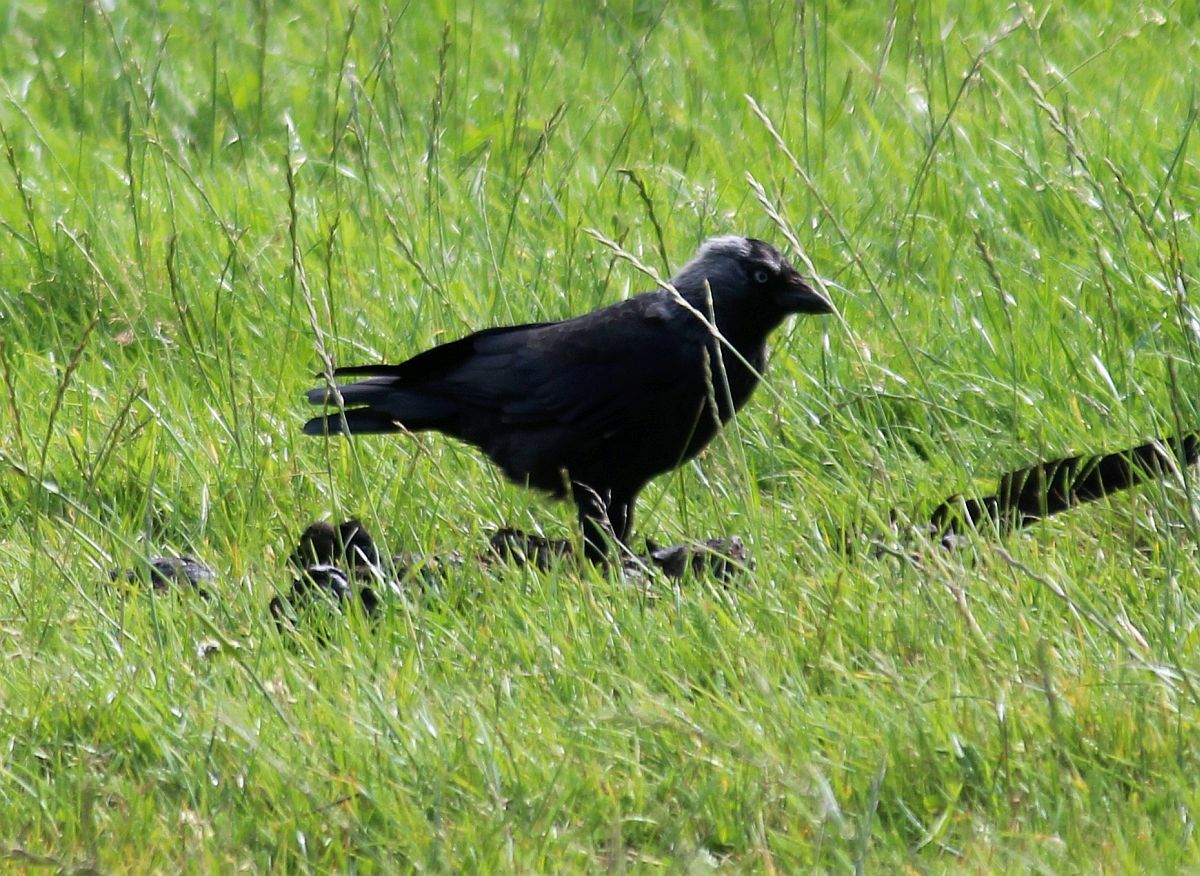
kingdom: Animalia
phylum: Chordata
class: Aves
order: Passeriformes
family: Corvidae
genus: Coloeus
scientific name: Coloeus monedula
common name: Western jackdaw
